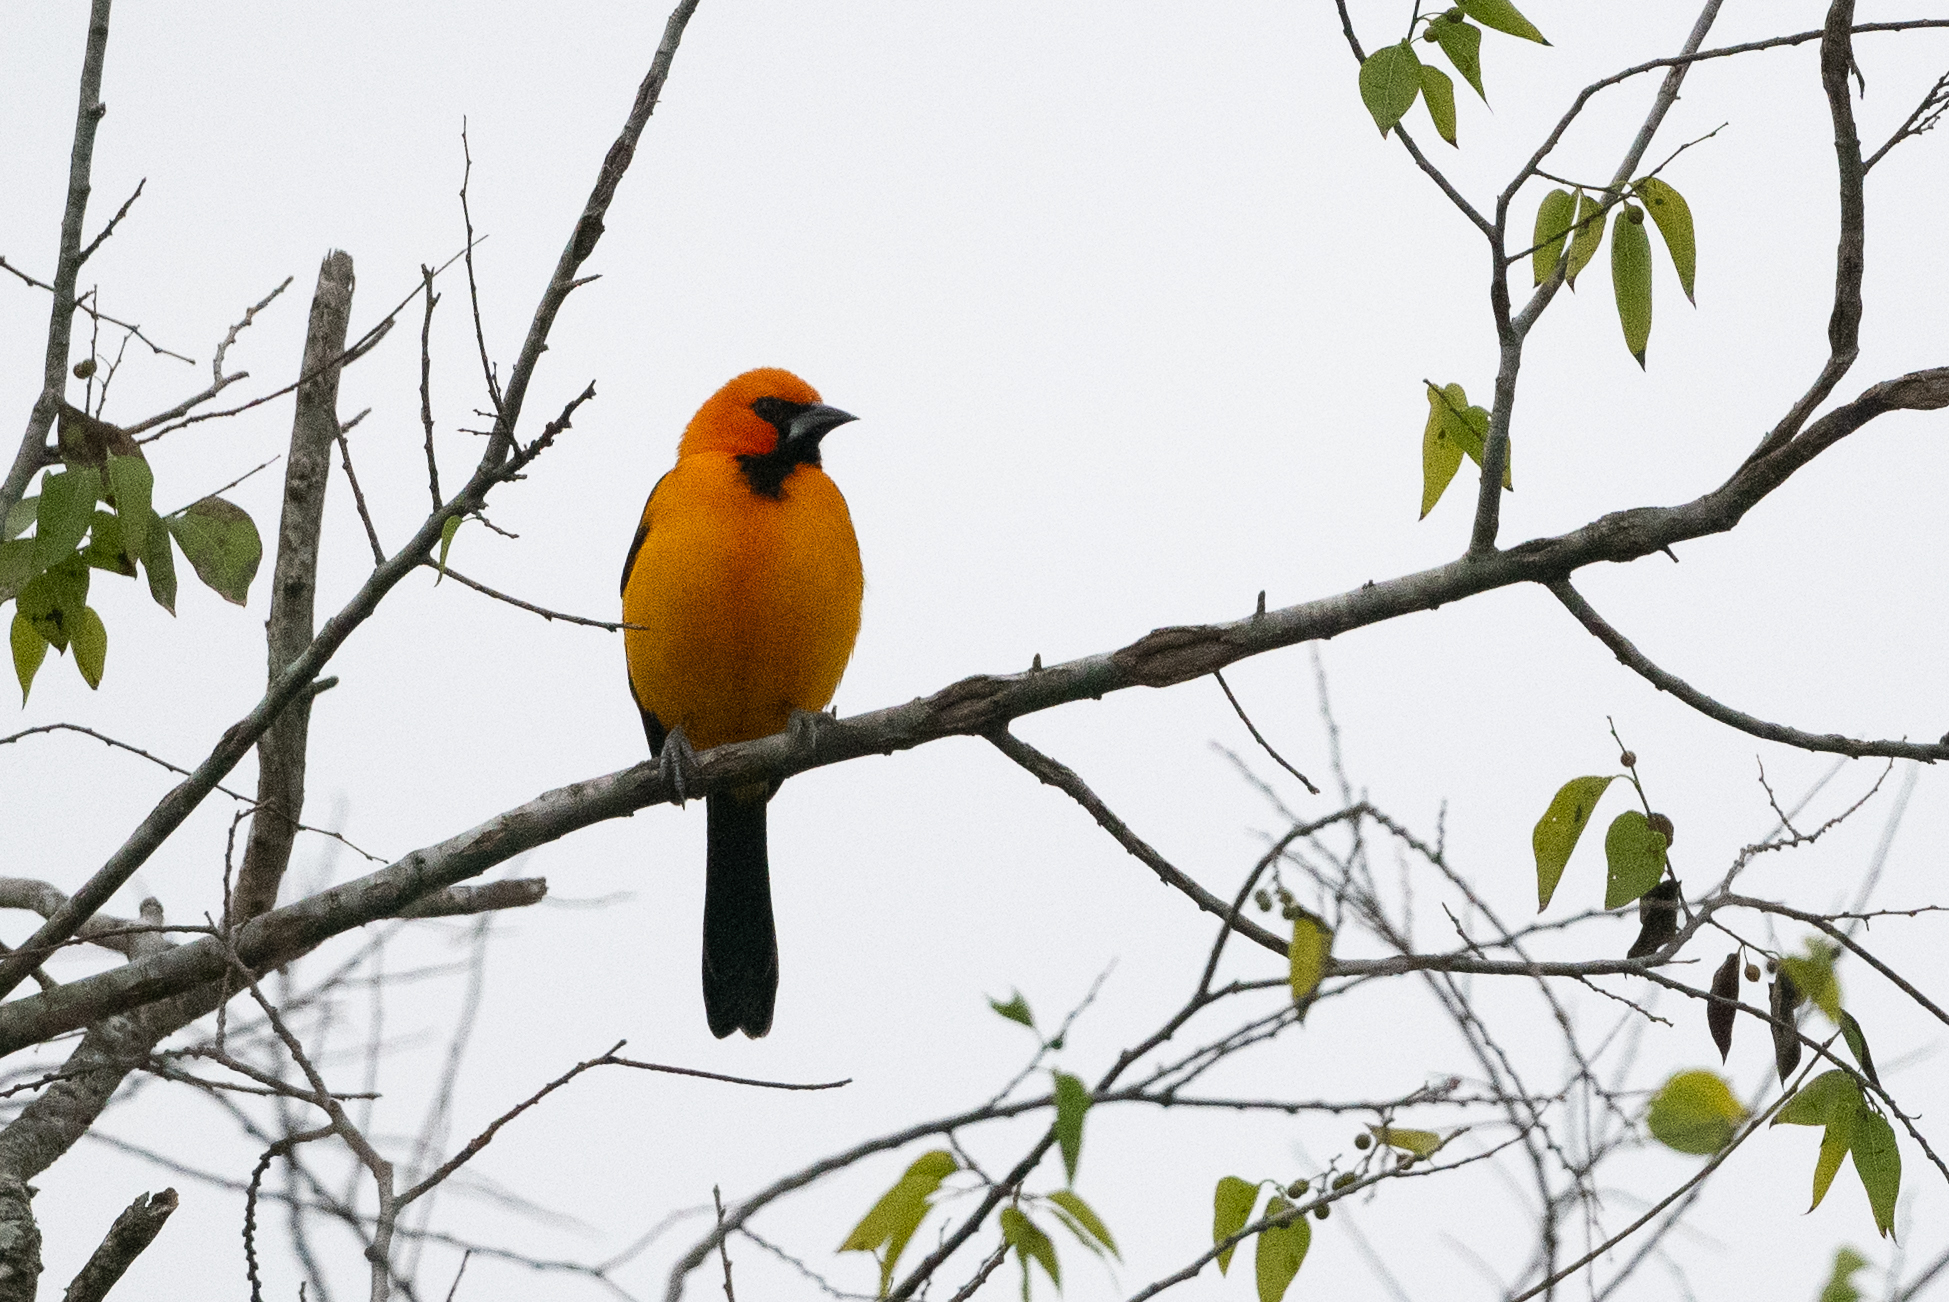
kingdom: Animalia
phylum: Chordata
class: Aves
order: Passeriformes
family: Icteridae
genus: Icterus
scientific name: Icterus gularis
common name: Altamira oriole
